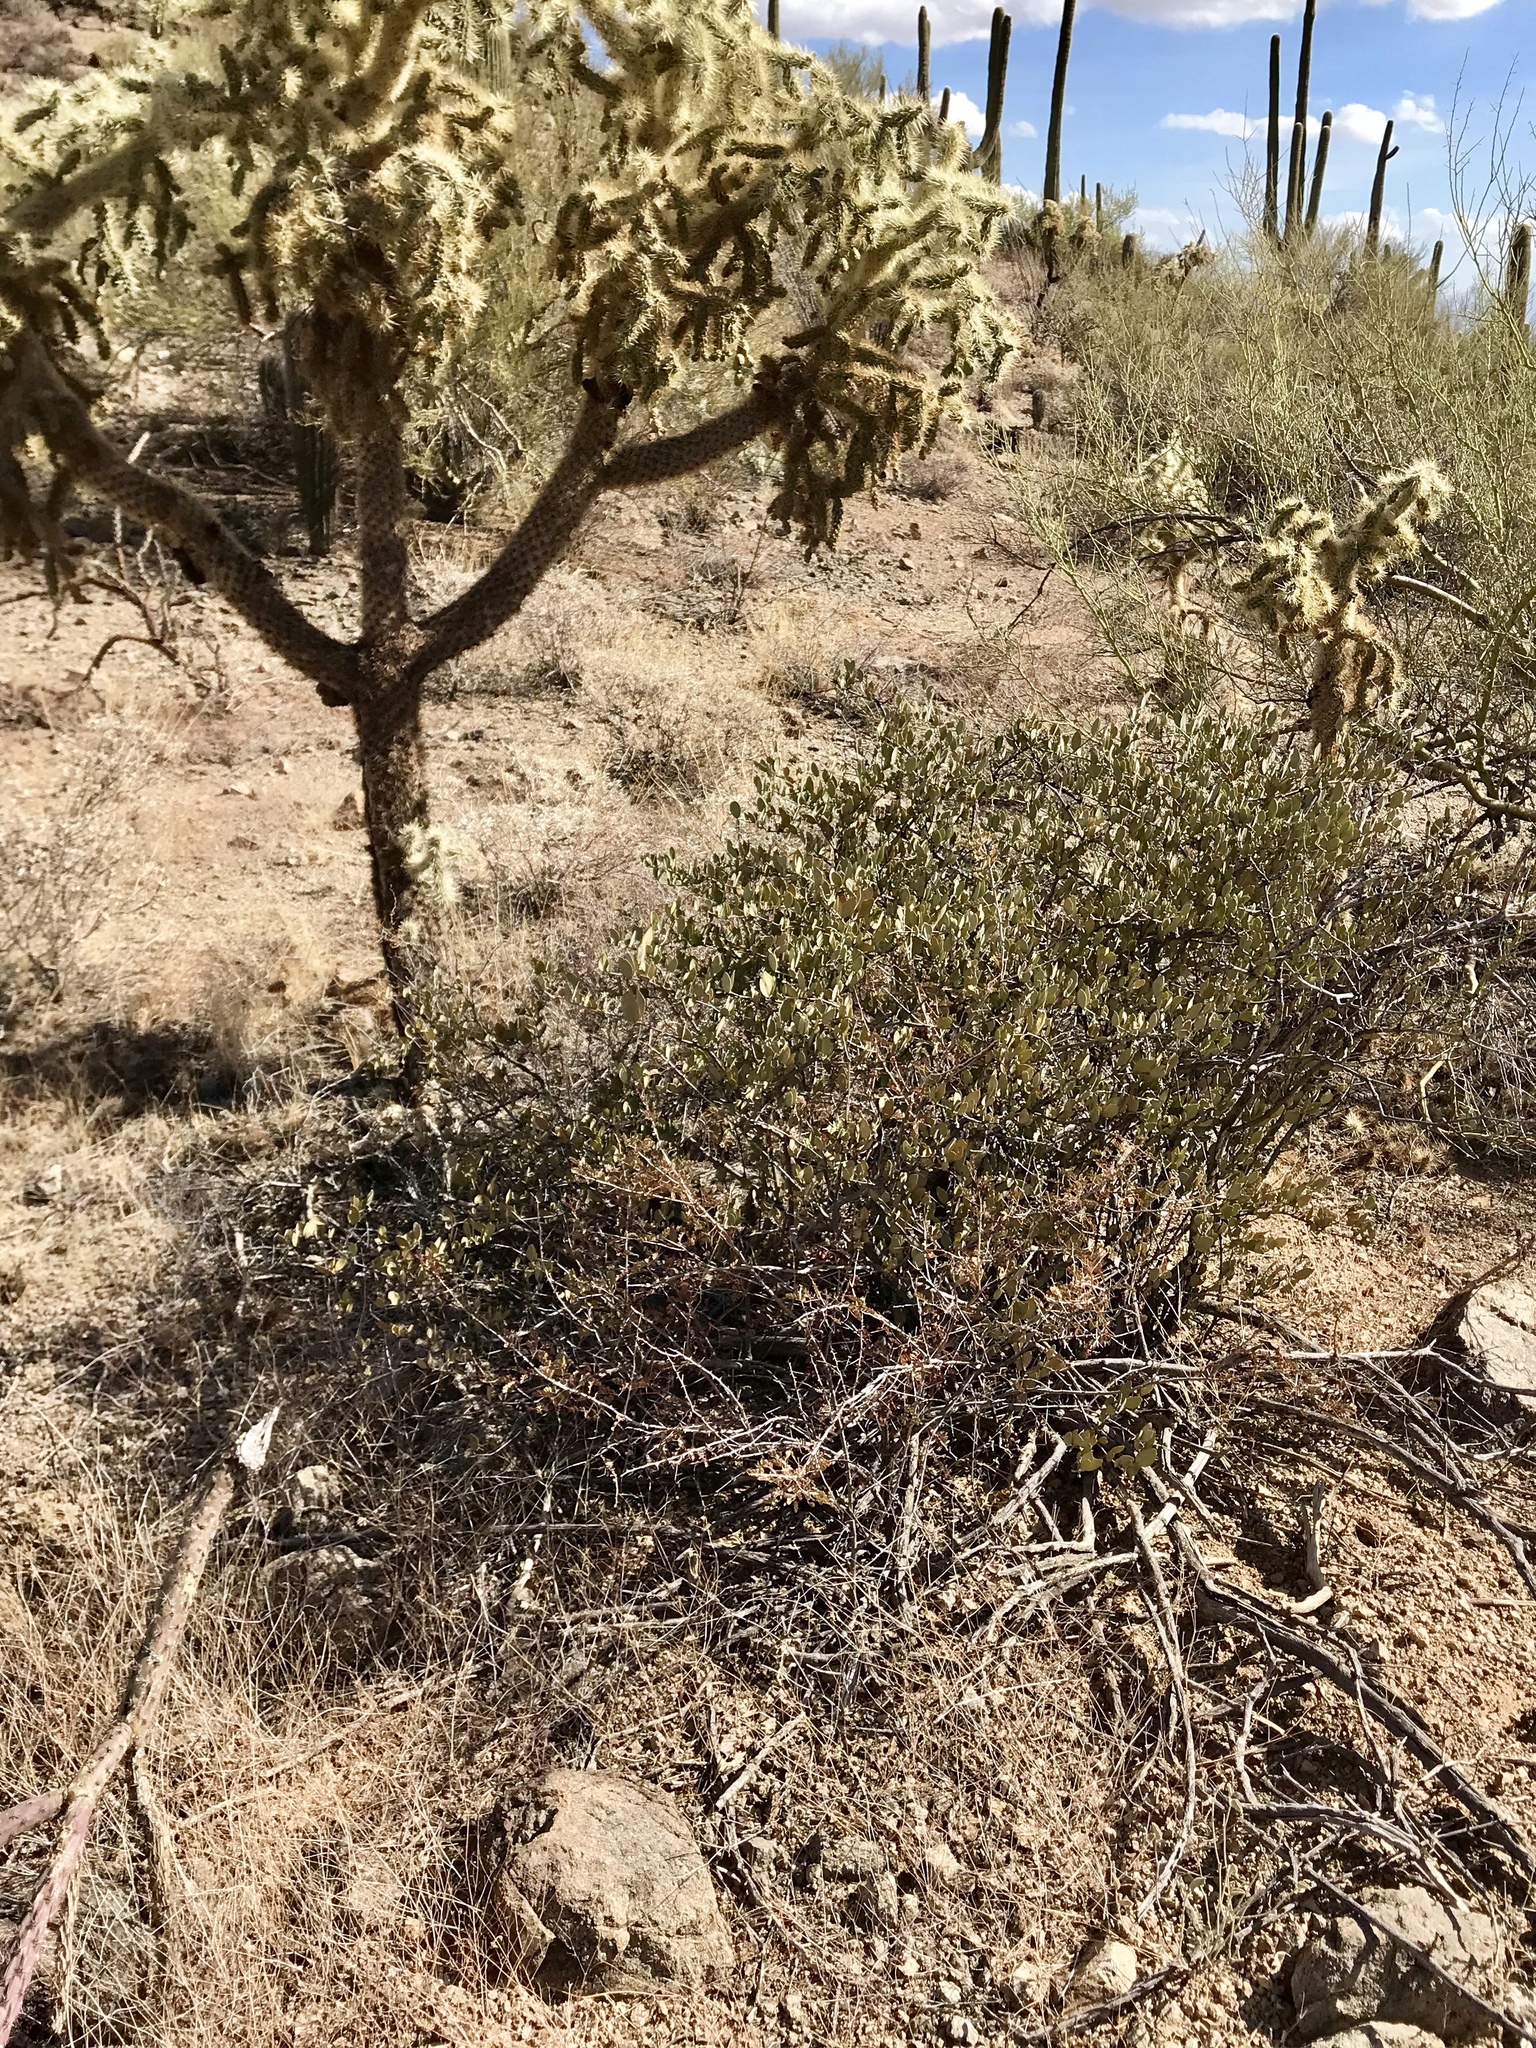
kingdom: Plantae
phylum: Tracheophyta
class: Magnoliopsida
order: Caryophyllales
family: Simmondsiaceae
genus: Simmondsia
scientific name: Simmondsia chinensis
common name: Jojoba
